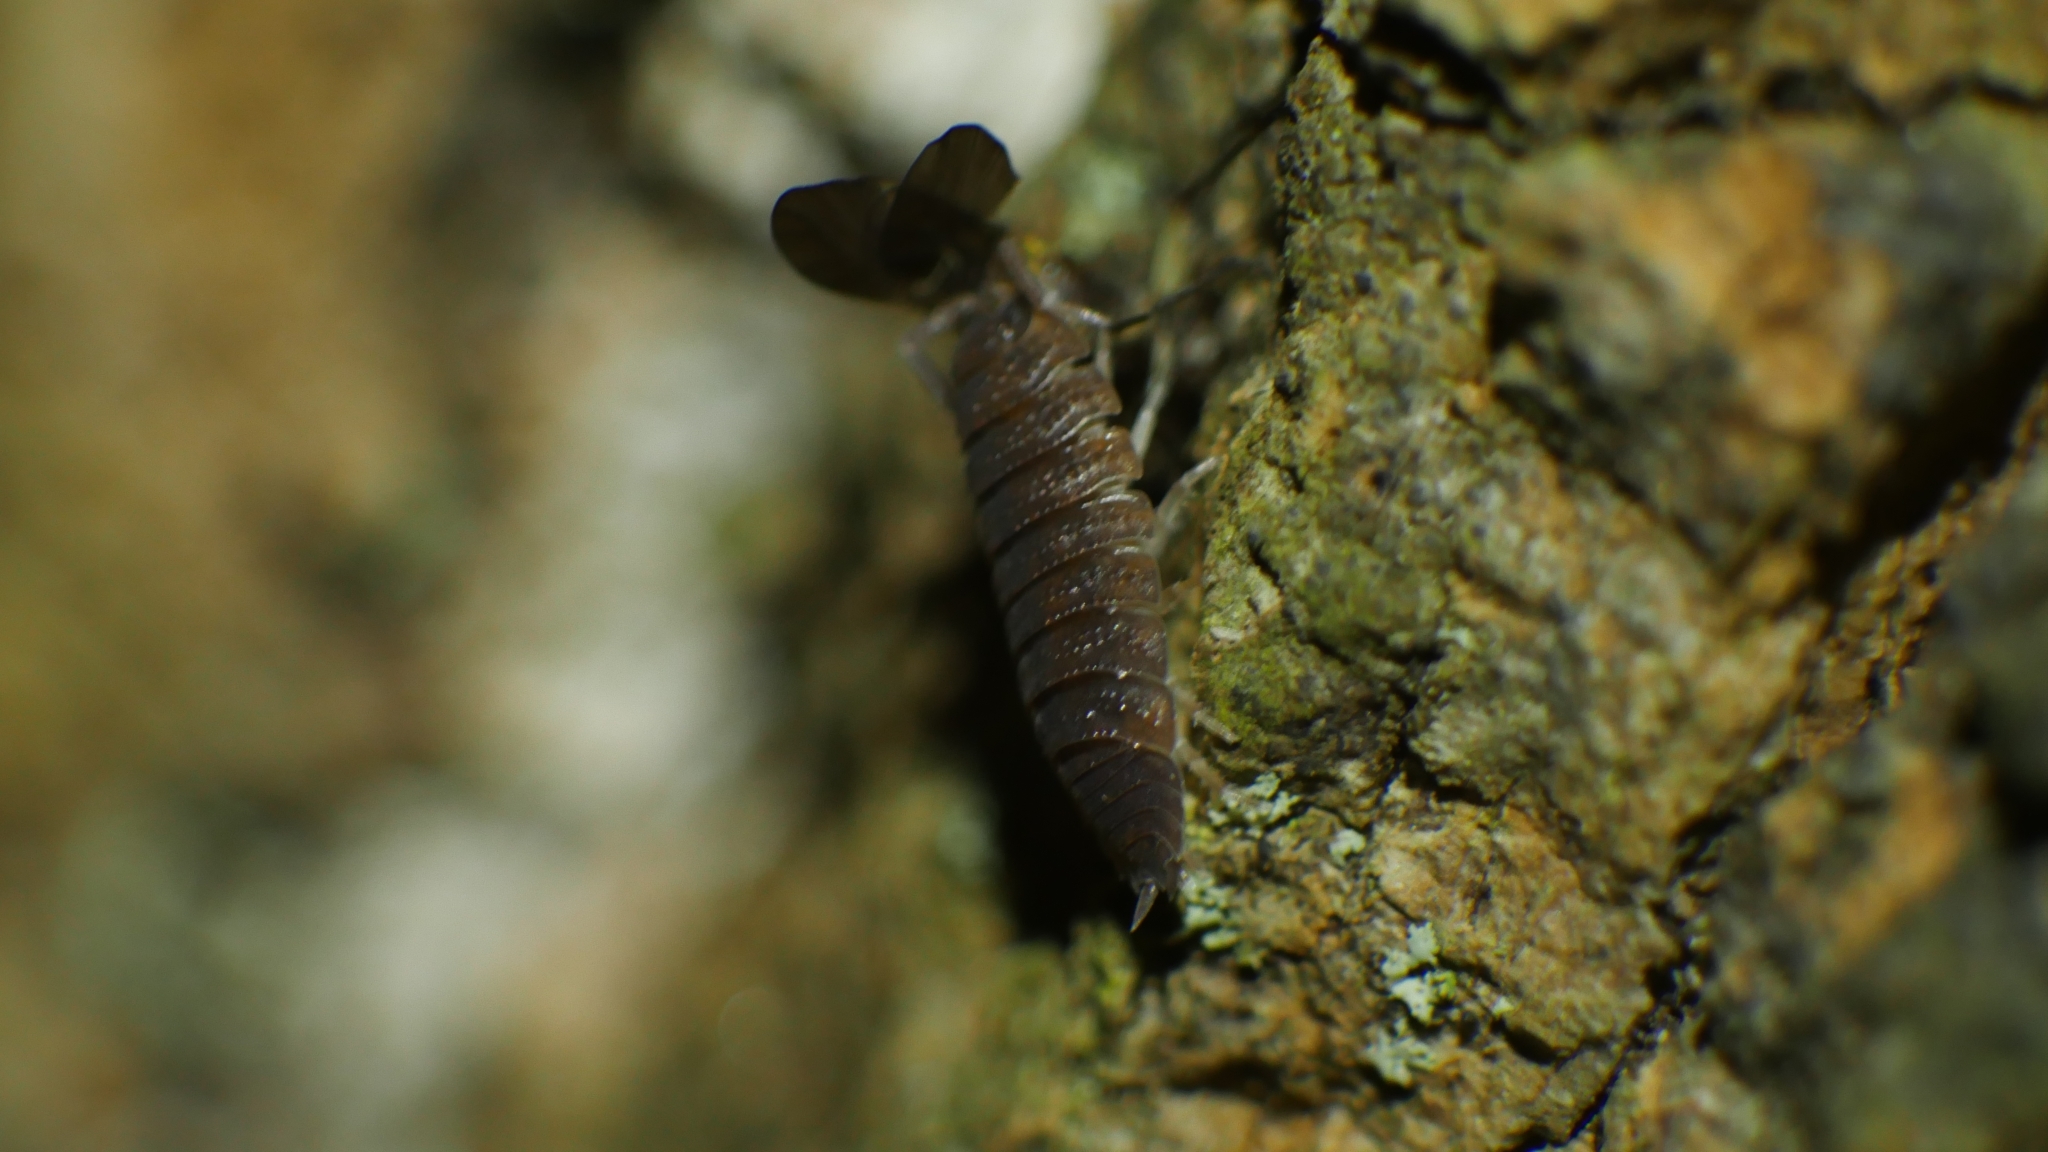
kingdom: Animalia
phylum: Arthropoda
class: Malacostraca
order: Isopoda
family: Porcellionidae
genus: Porcellio
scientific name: Porcellio scaber
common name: Common rough woodlouse
